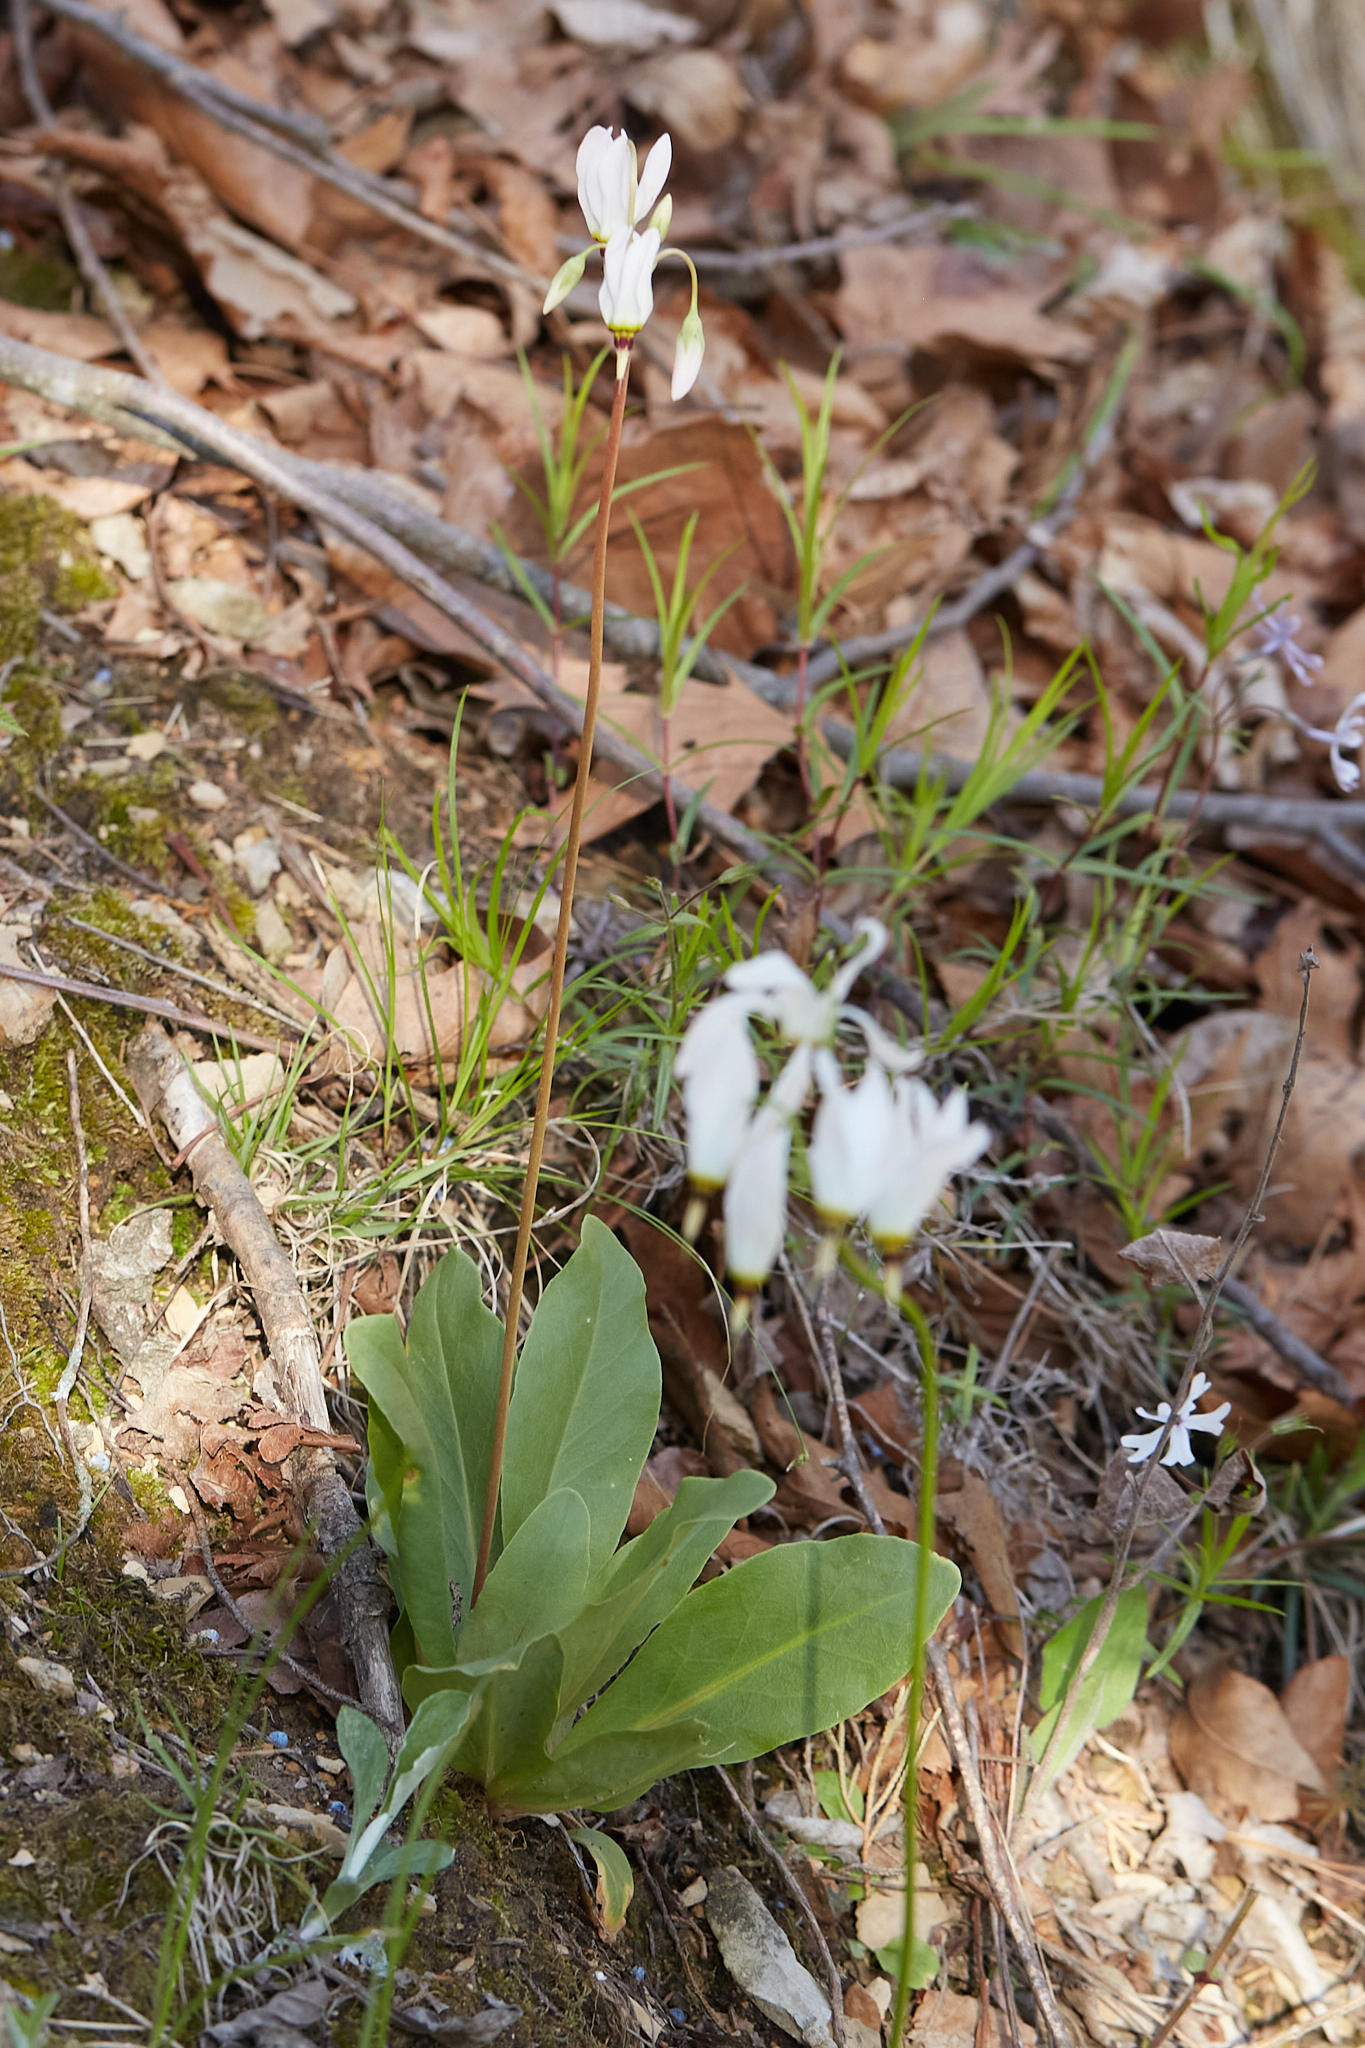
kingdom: Plantae
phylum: Tracheophyta
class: Magnoliopsida
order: Ericales
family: Primulaceae
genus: Dodecatheon
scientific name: Dodecatheon meadia
